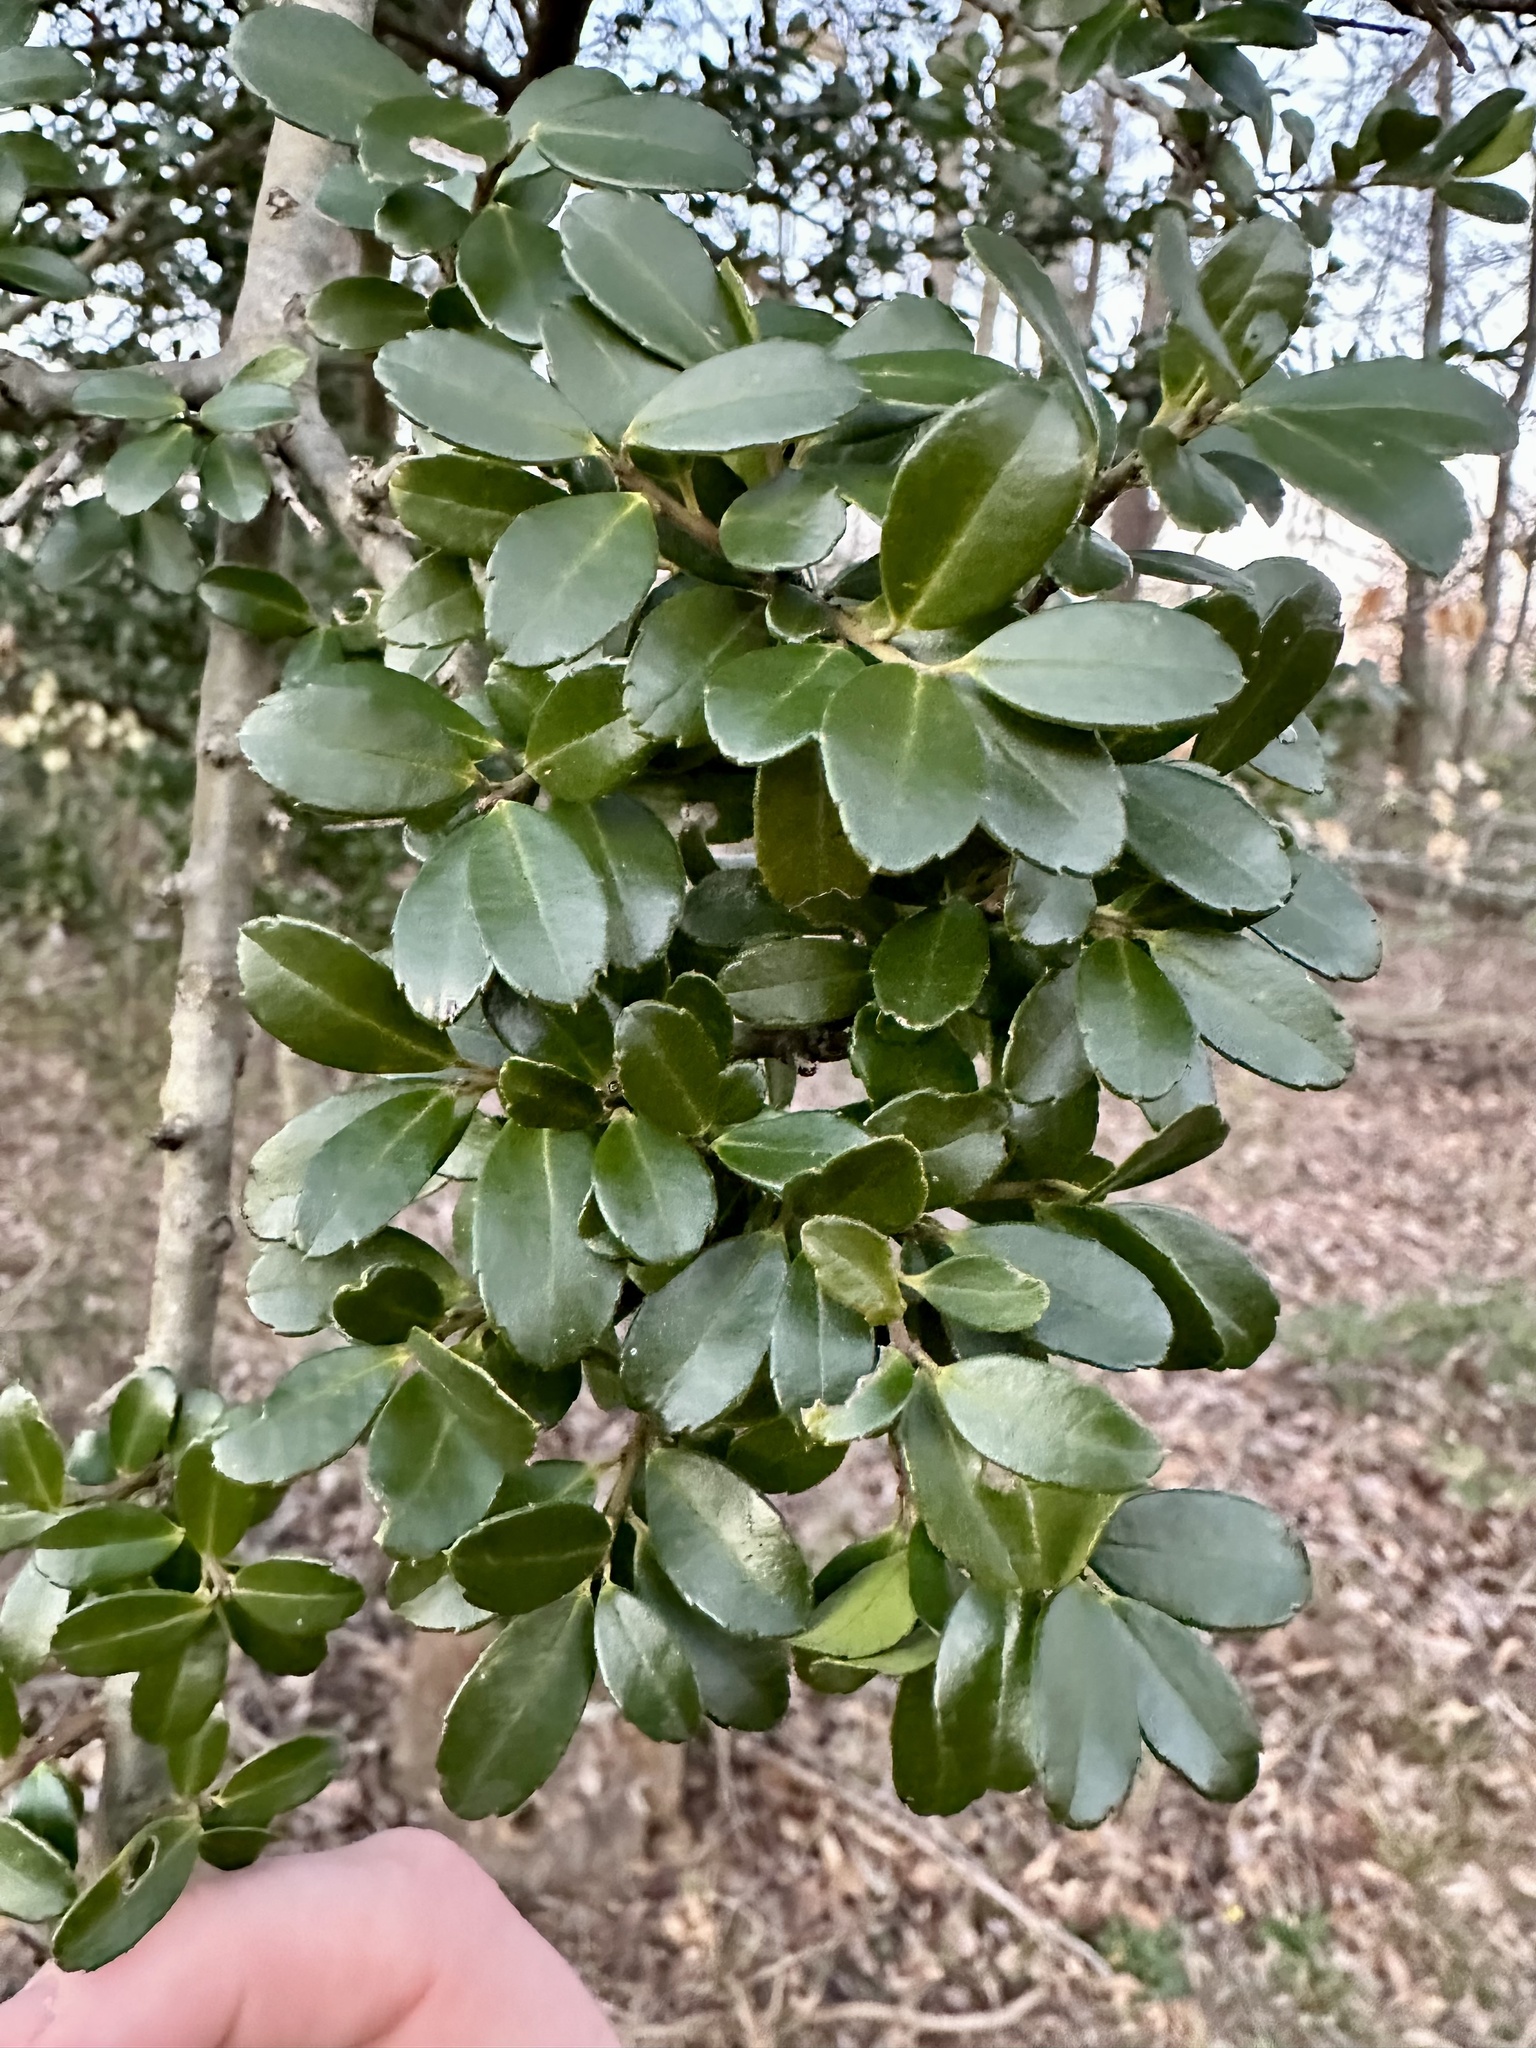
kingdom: Plantae
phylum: Tracheophyta
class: Magnoliopsida
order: Aquifoliales
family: Aquifoliaceae
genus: Ilex
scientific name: Ilex crenata
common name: Japanese holly
